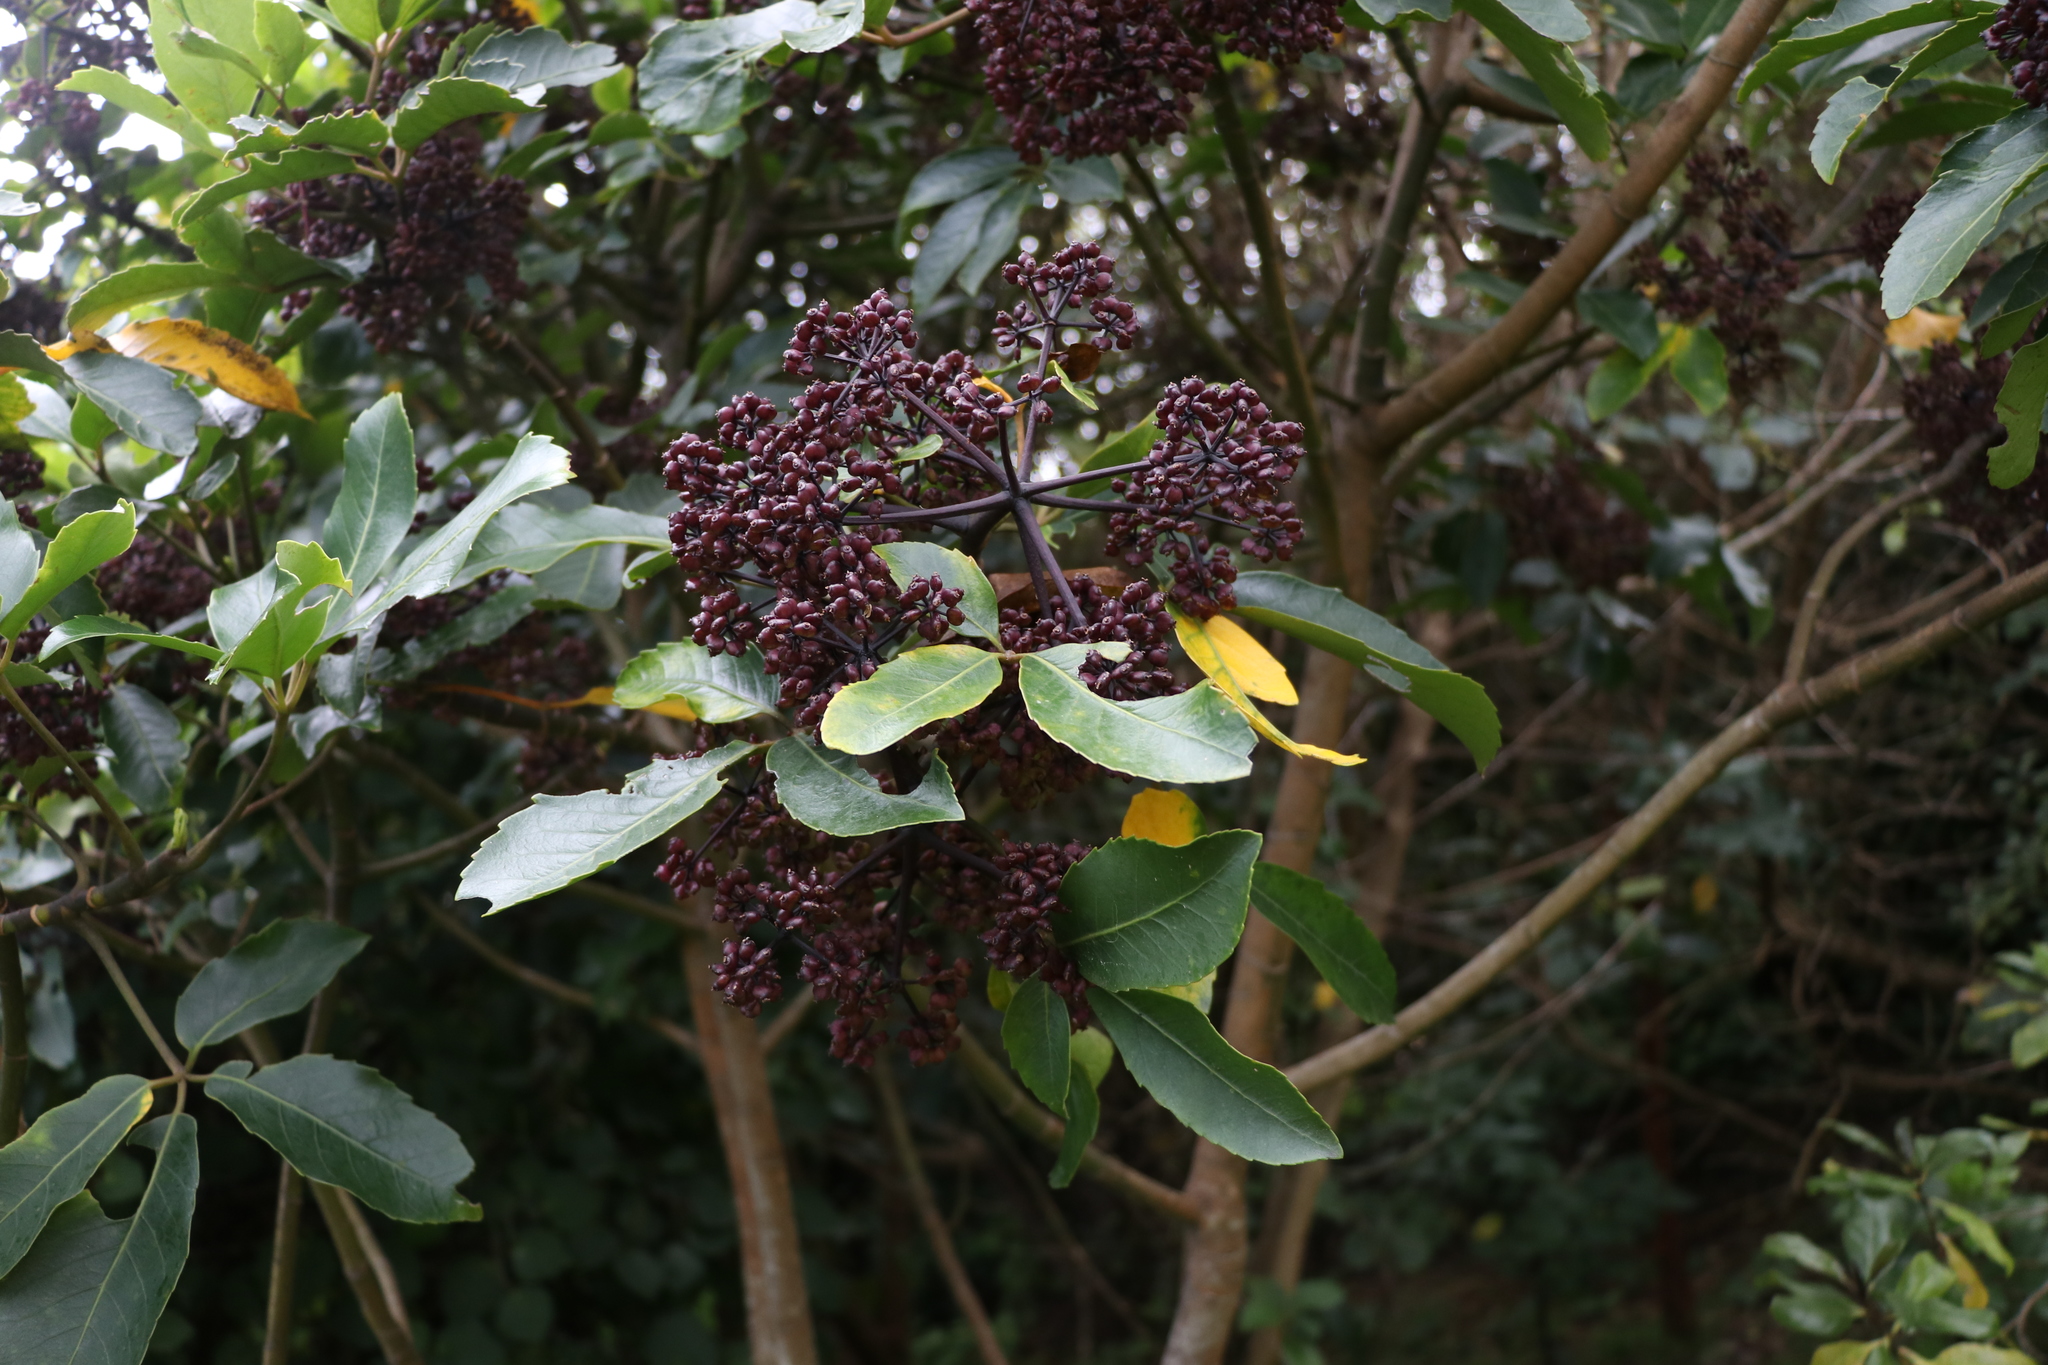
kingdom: Plantae
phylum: Tracheophyta
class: Magnoliopsida
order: Apiales
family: Araliaceae
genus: Neopanax
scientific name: Neopanax arboreus
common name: Five-fingers
